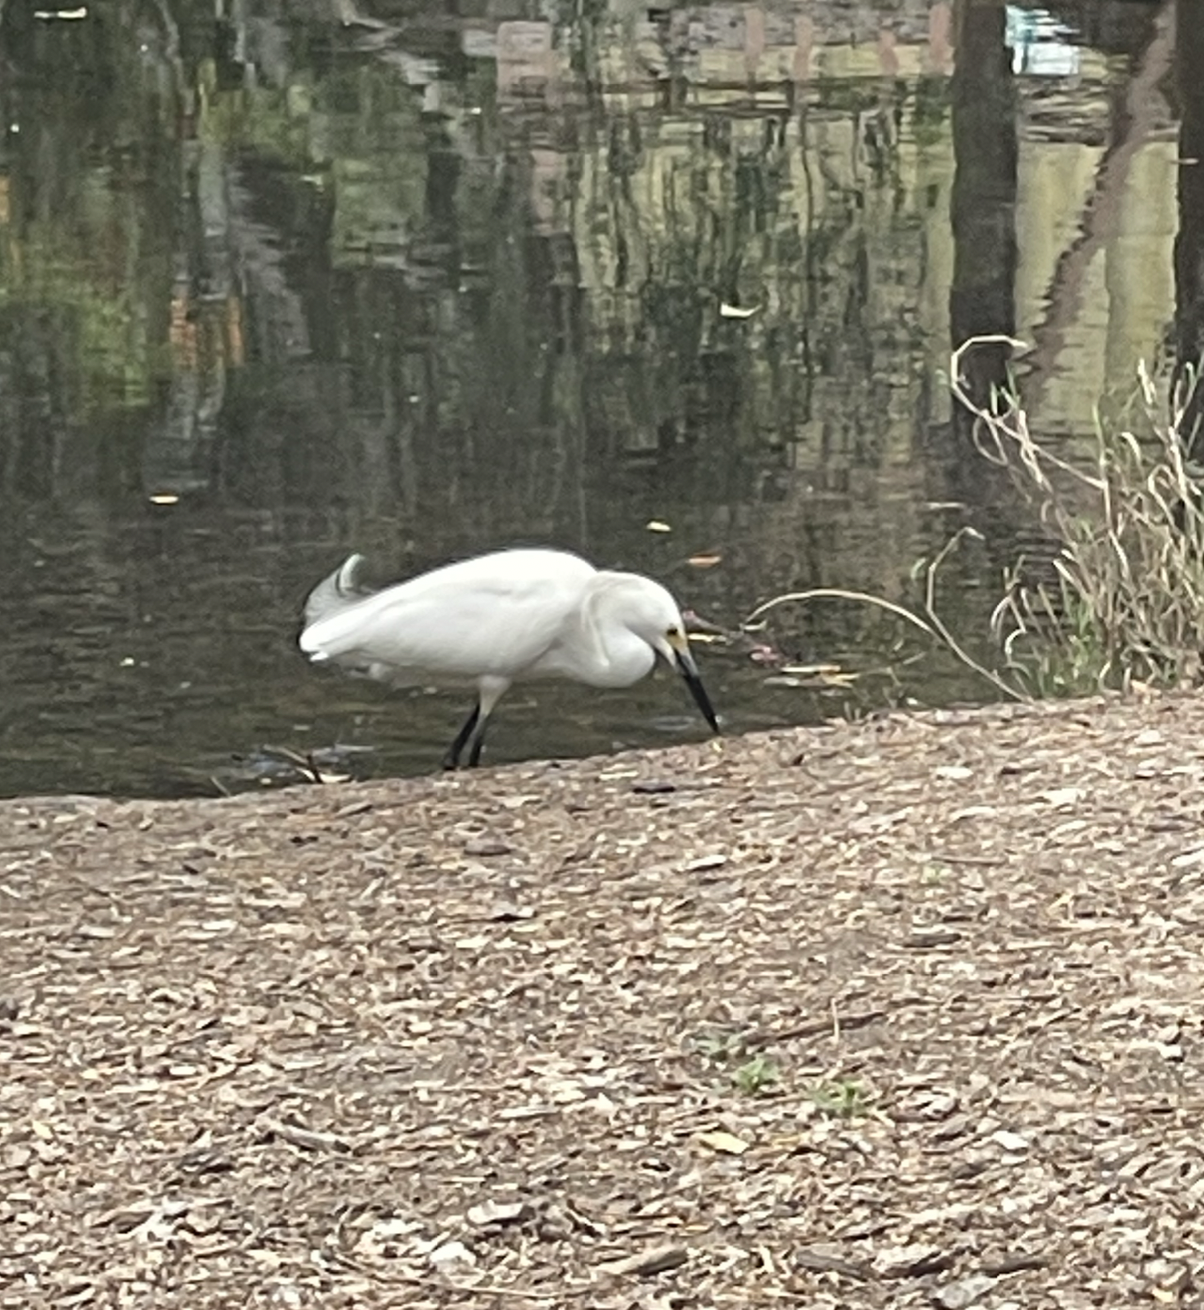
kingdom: Animalia
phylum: Chordata
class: Aves
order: Pelecaniformes
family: Ardeidae
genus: Egretta
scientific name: Egretta thula
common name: Snowy egret
